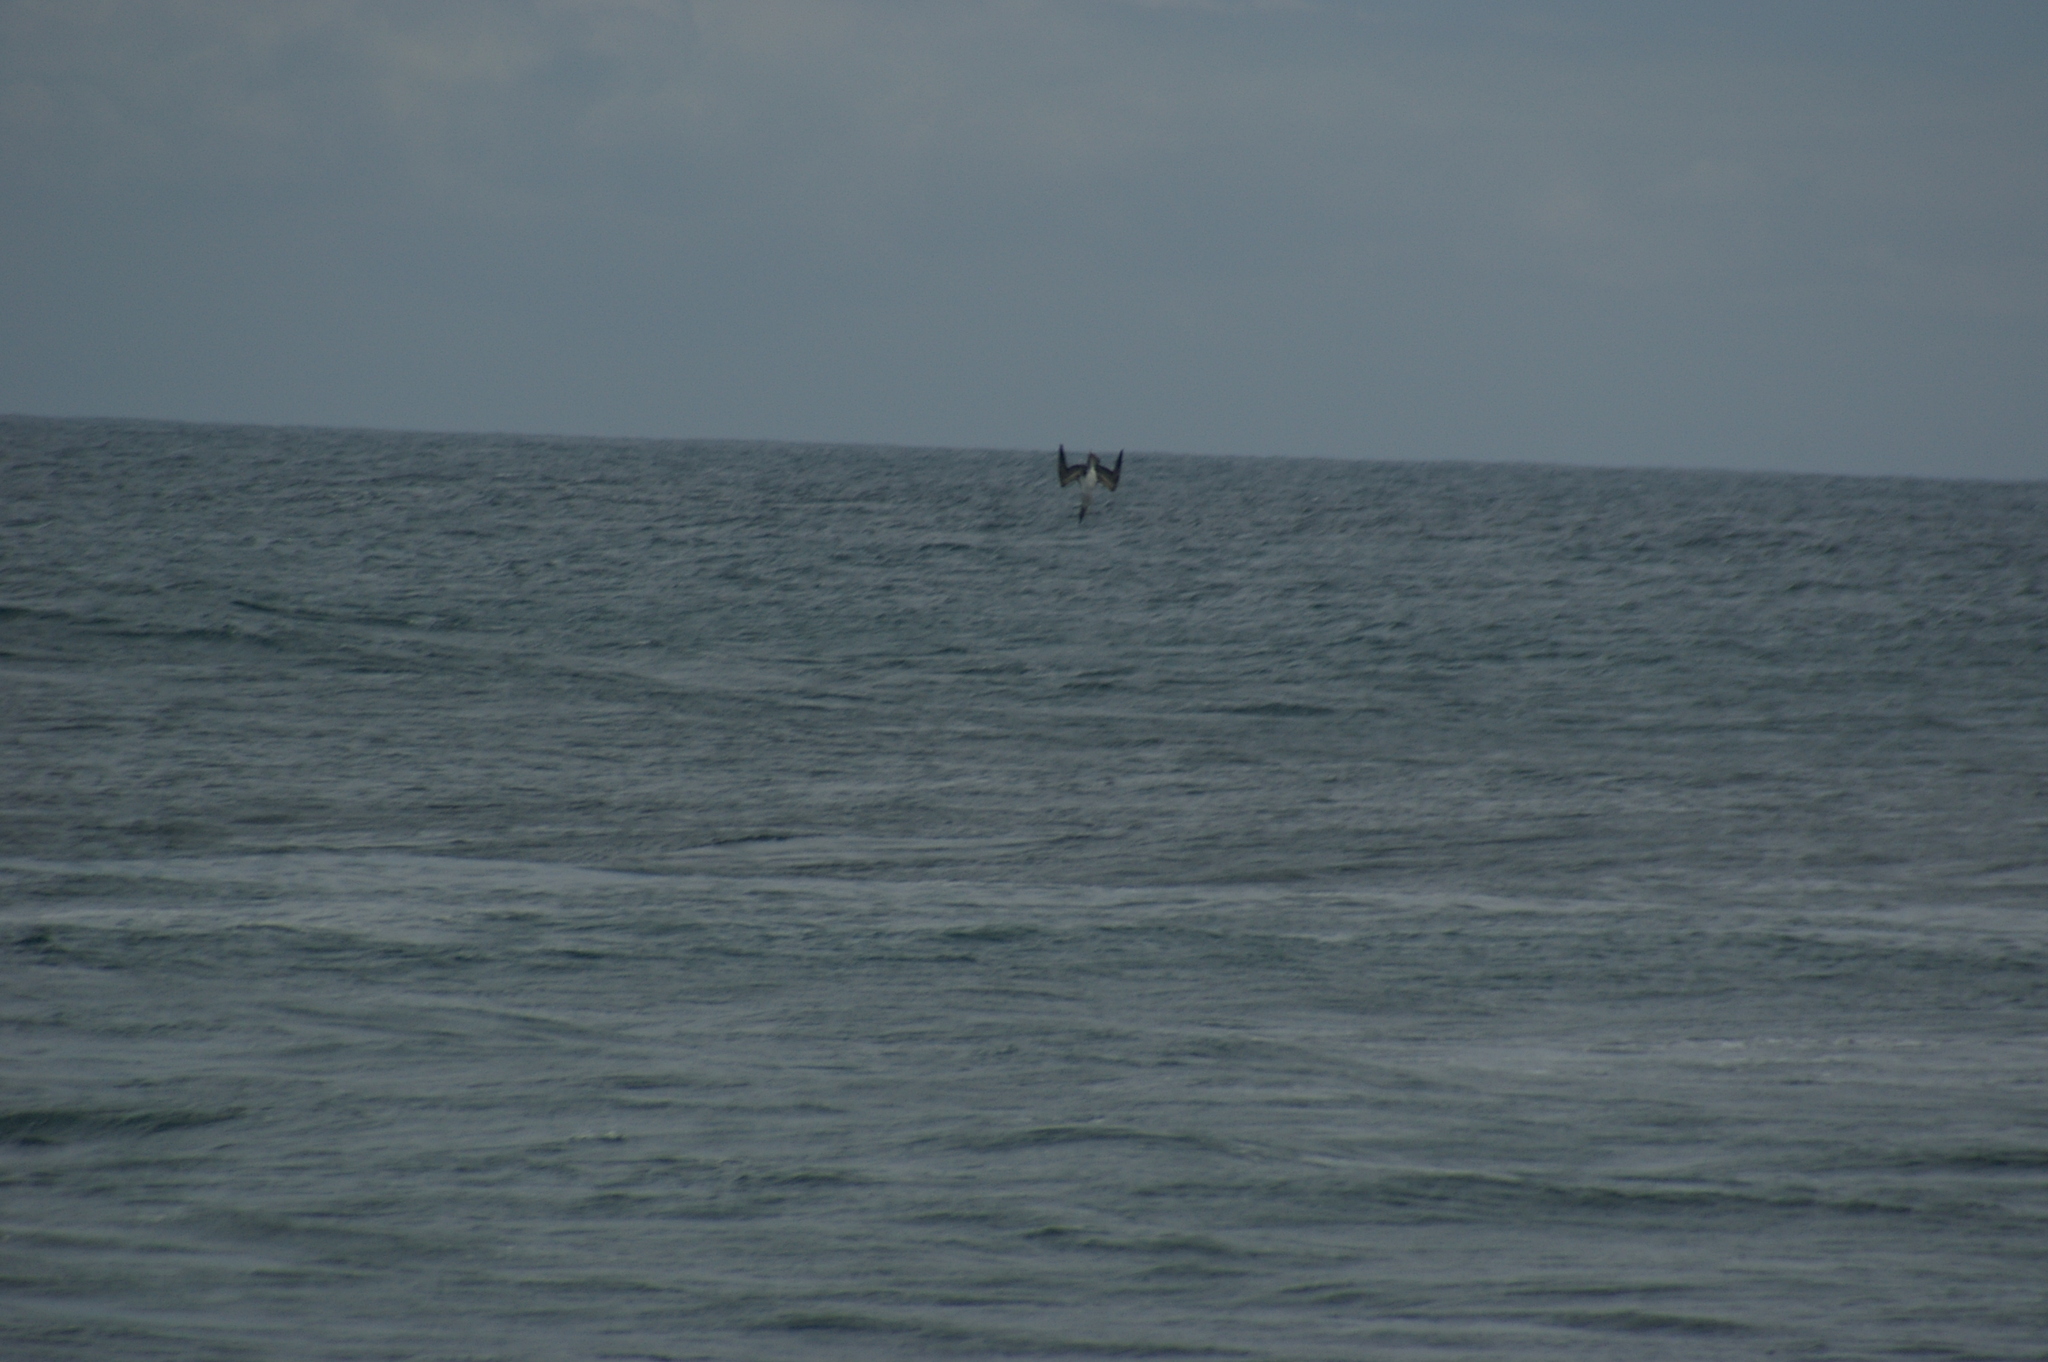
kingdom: Animalia
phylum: Chordata
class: Aves
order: Suliformes
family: Sulidae
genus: Sula
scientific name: Sula nebouxii
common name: Blue-footed booby
